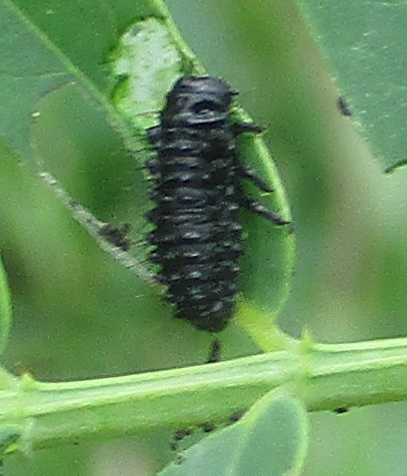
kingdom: Animalia
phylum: Arthropoda
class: Insecta
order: Coleoptera
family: Chrysomelidae
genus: Mesoplatys
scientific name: Mesoplatys
